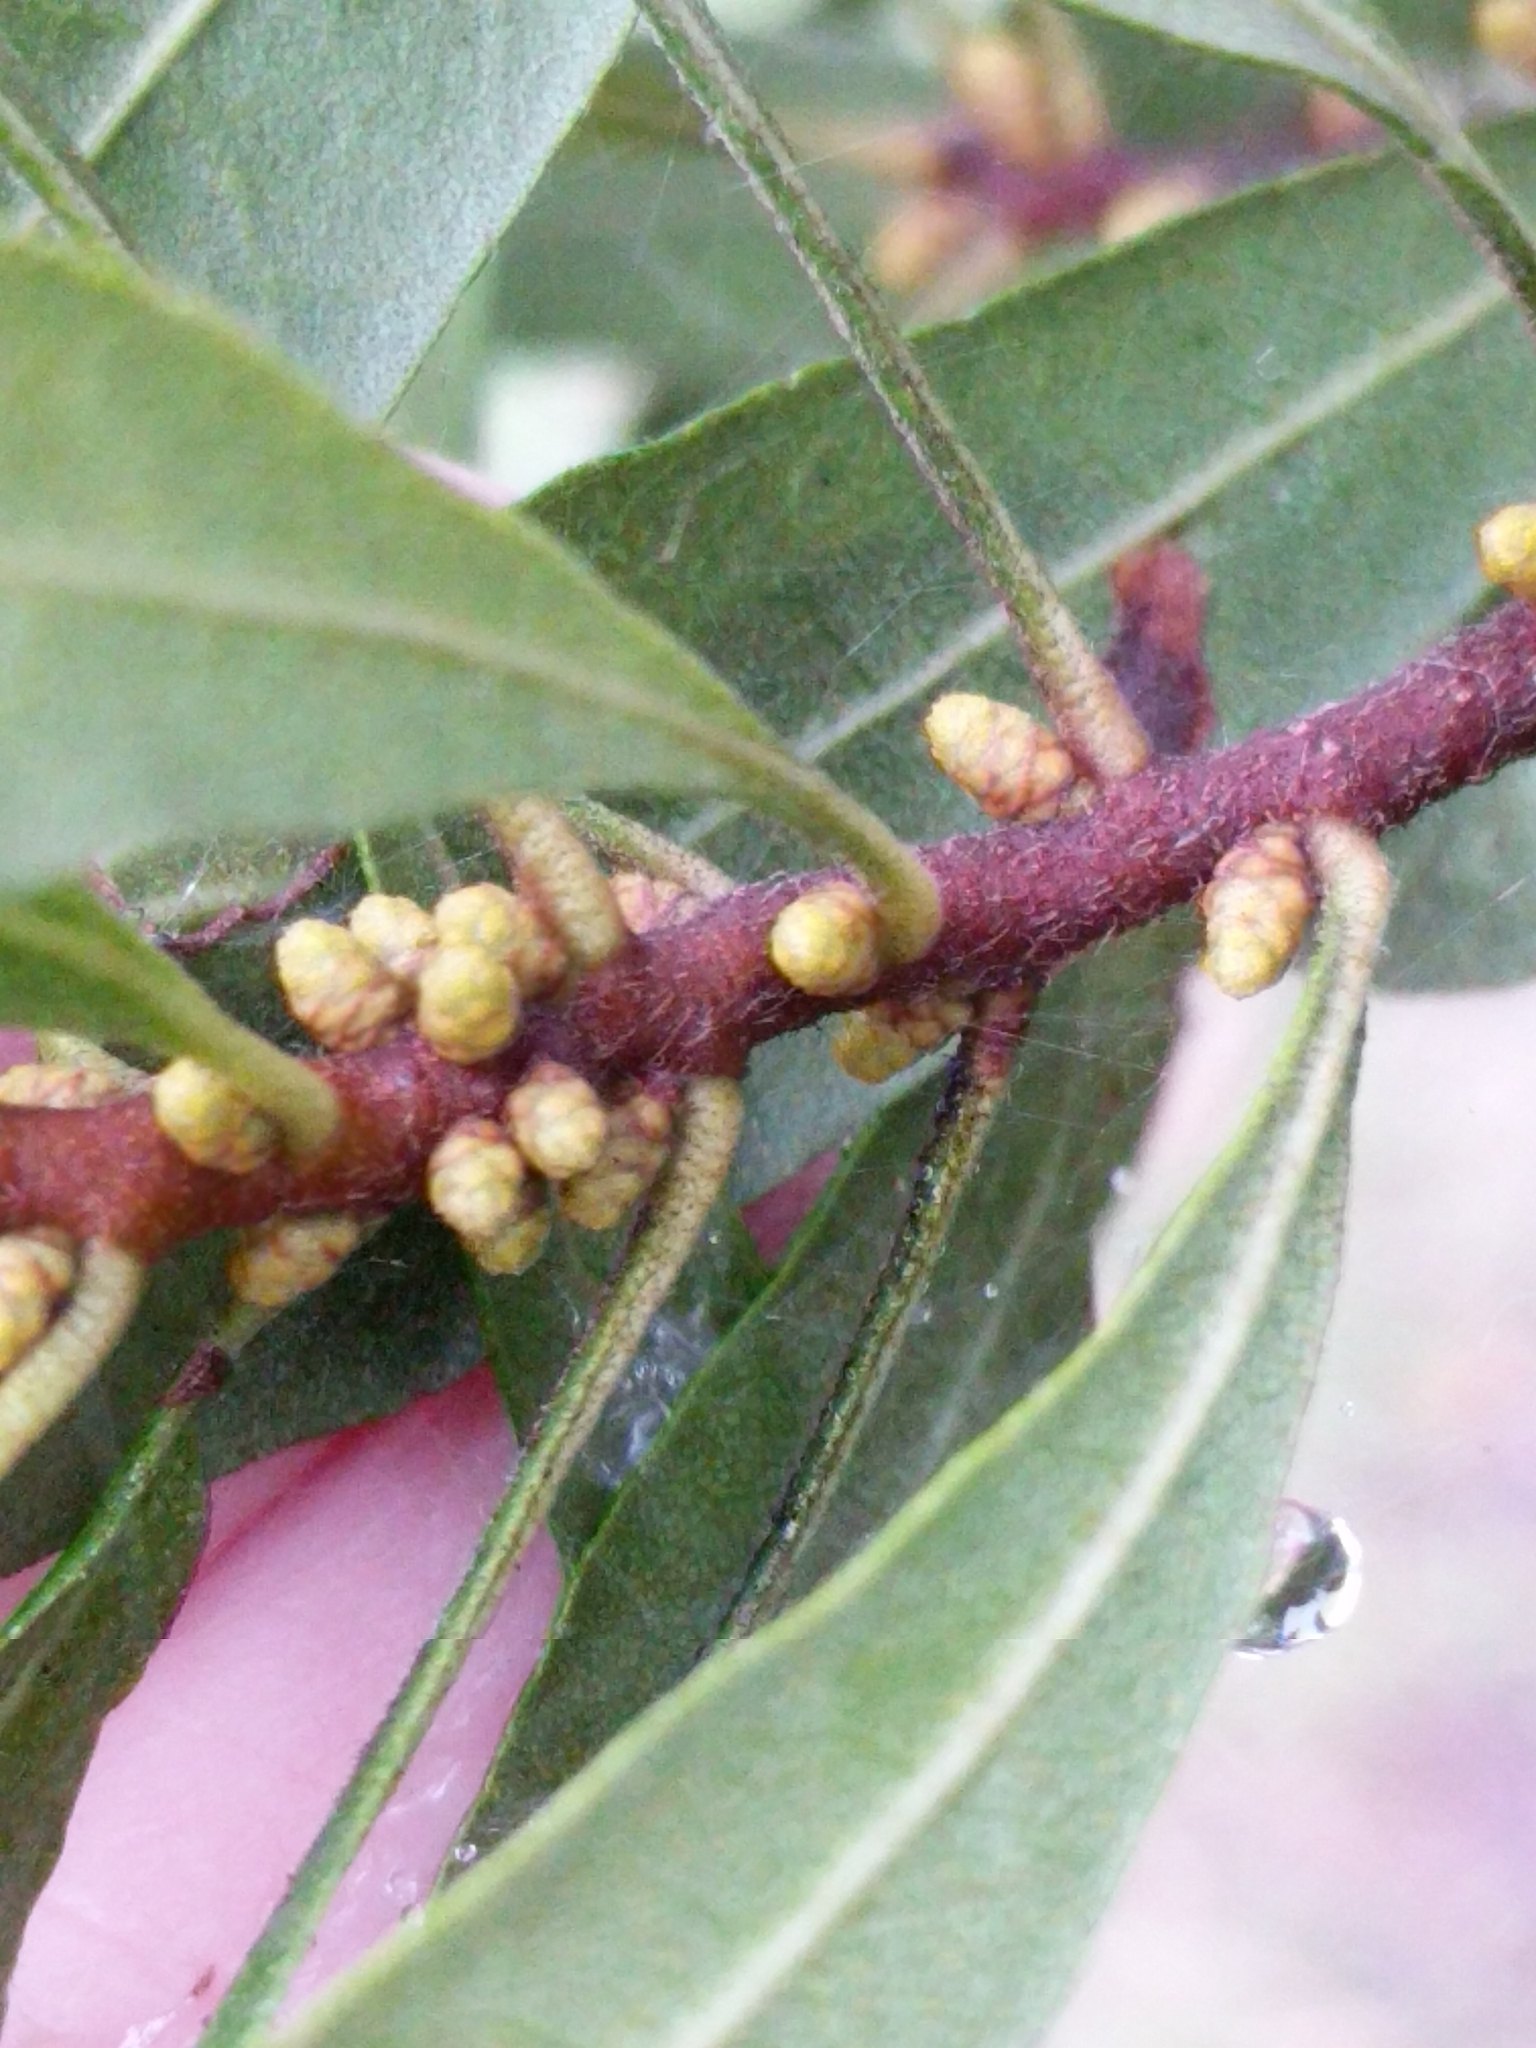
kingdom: Plantae
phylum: Tracheophyta
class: Magnoliopsida
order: Fagales
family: Myricaceae
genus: Morella
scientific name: Morella cerifera
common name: Wax myrtle
